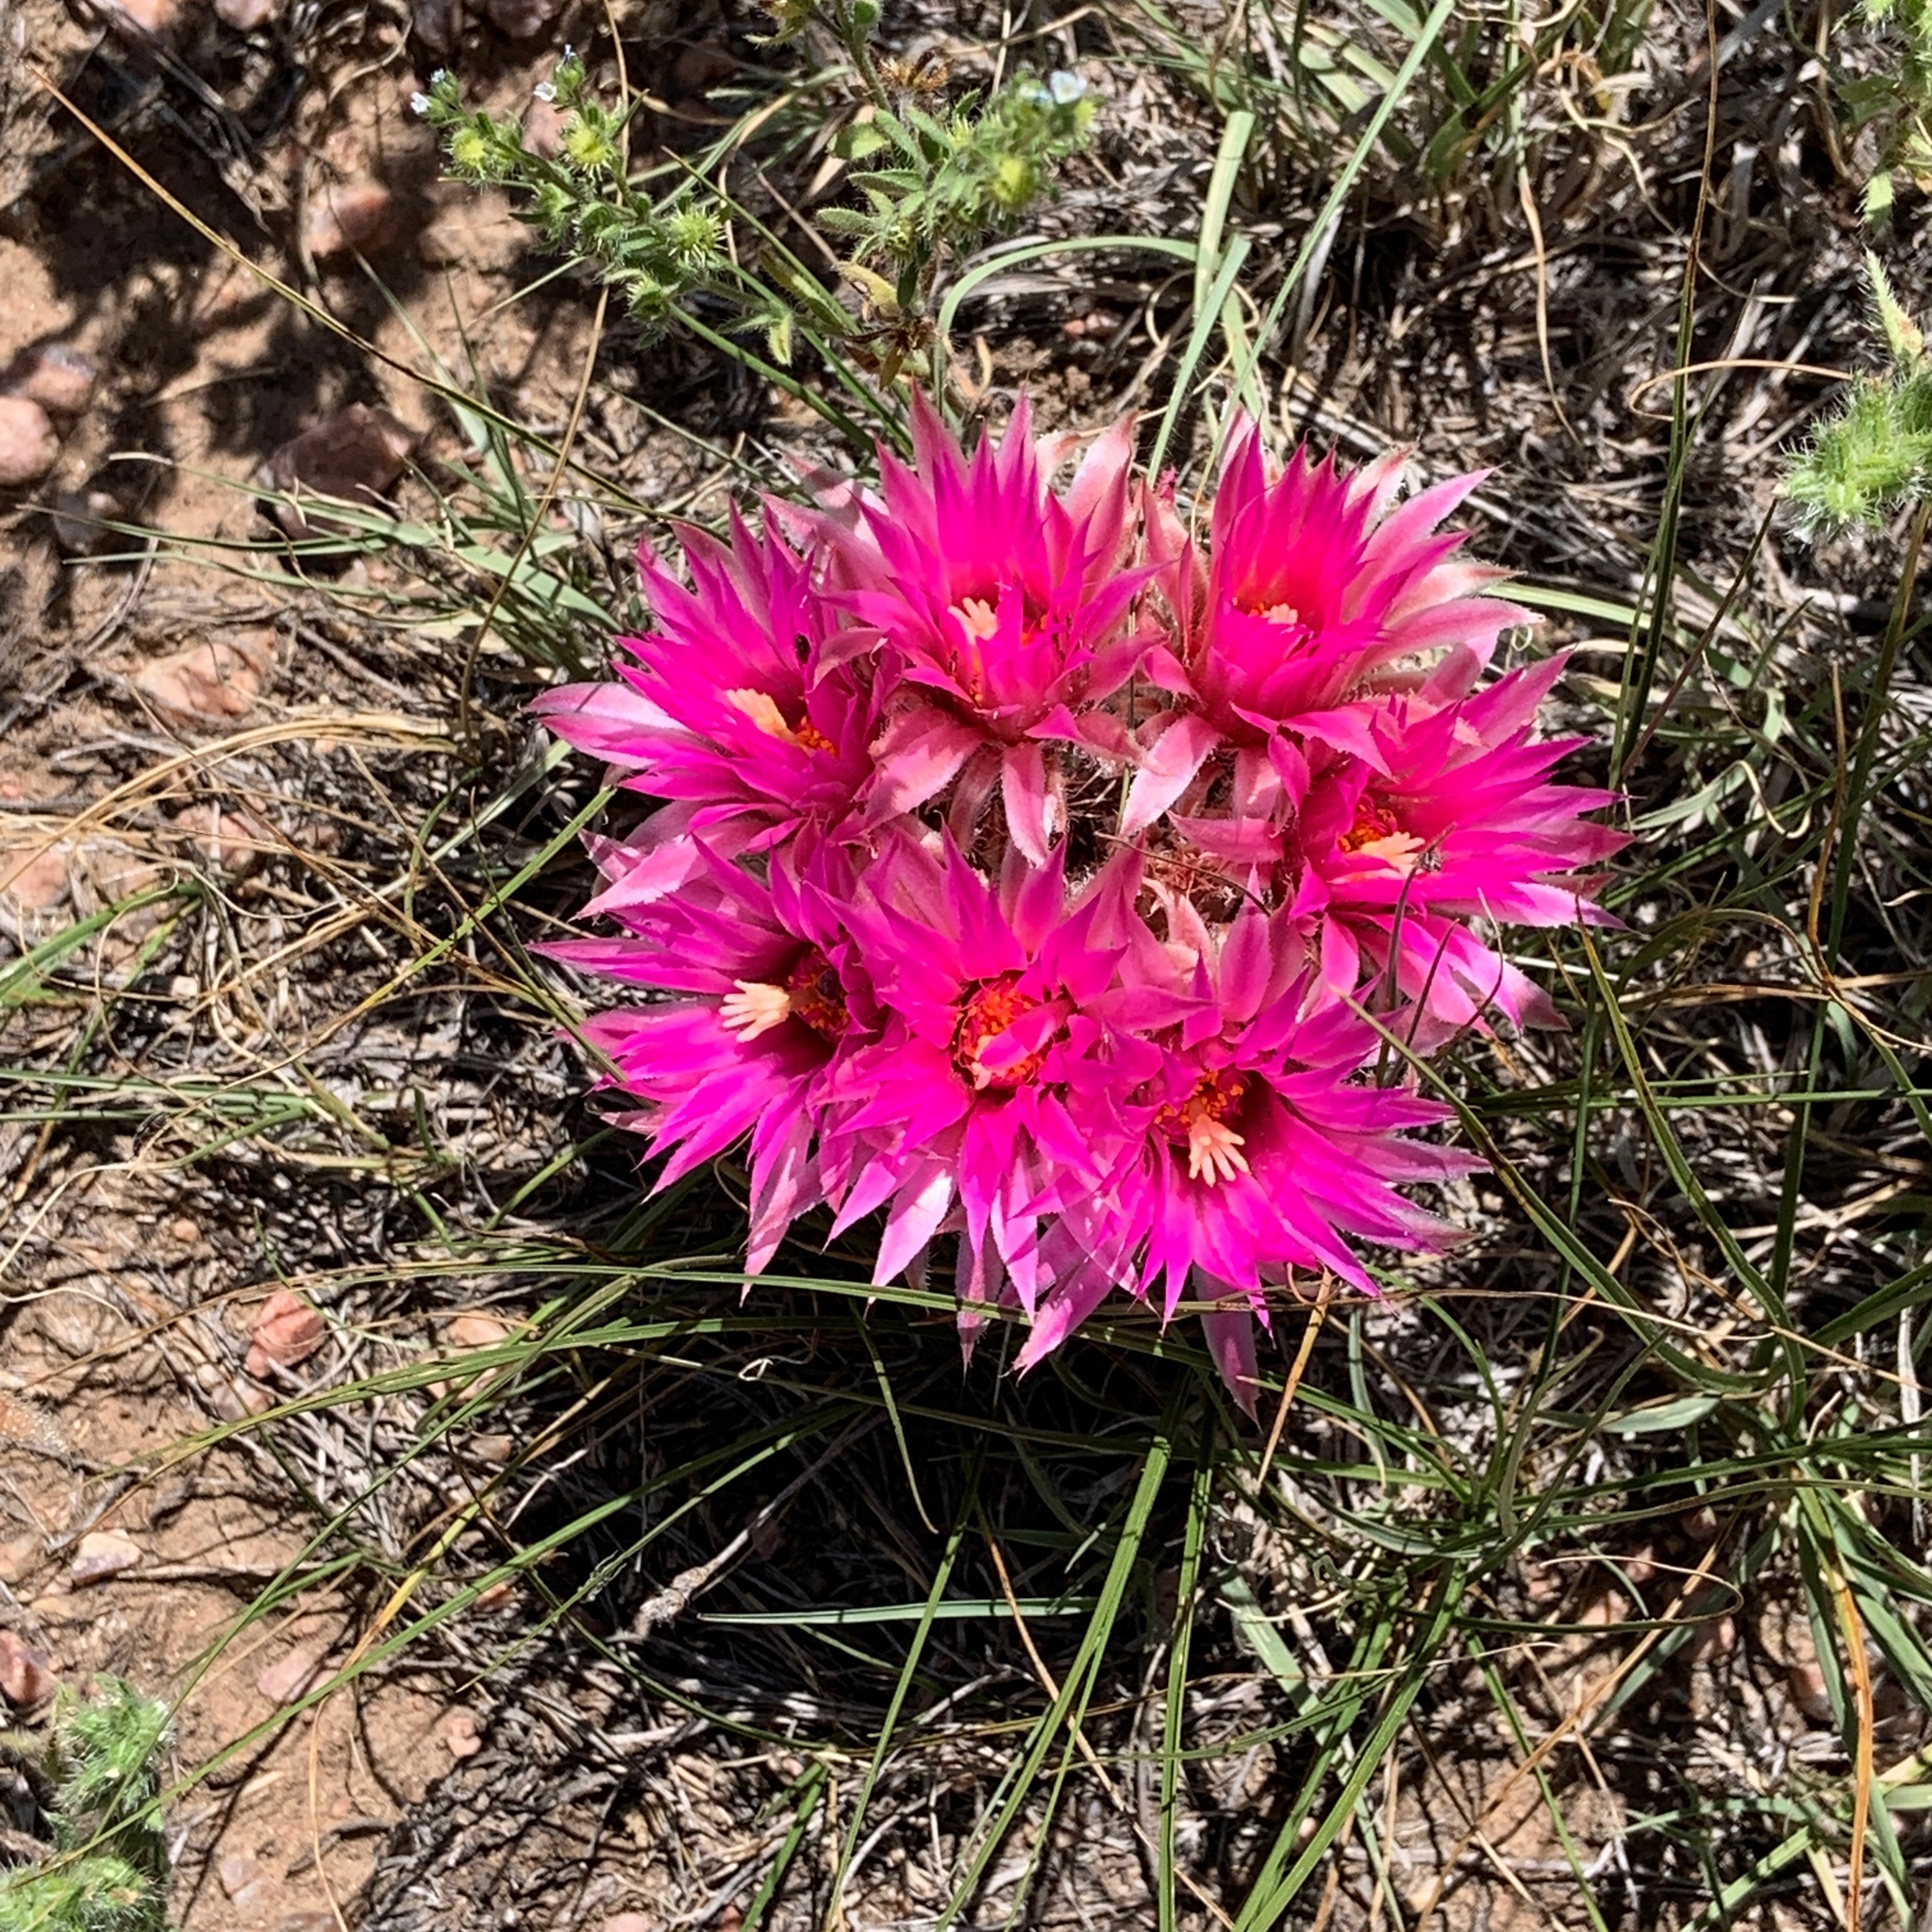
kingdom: Plantae
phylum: Tracheophyta
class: Magnoliopsida
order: Caryophyllales
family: Cactaceae
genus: Pelecyphora
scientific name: Pelecyphora vivipara
